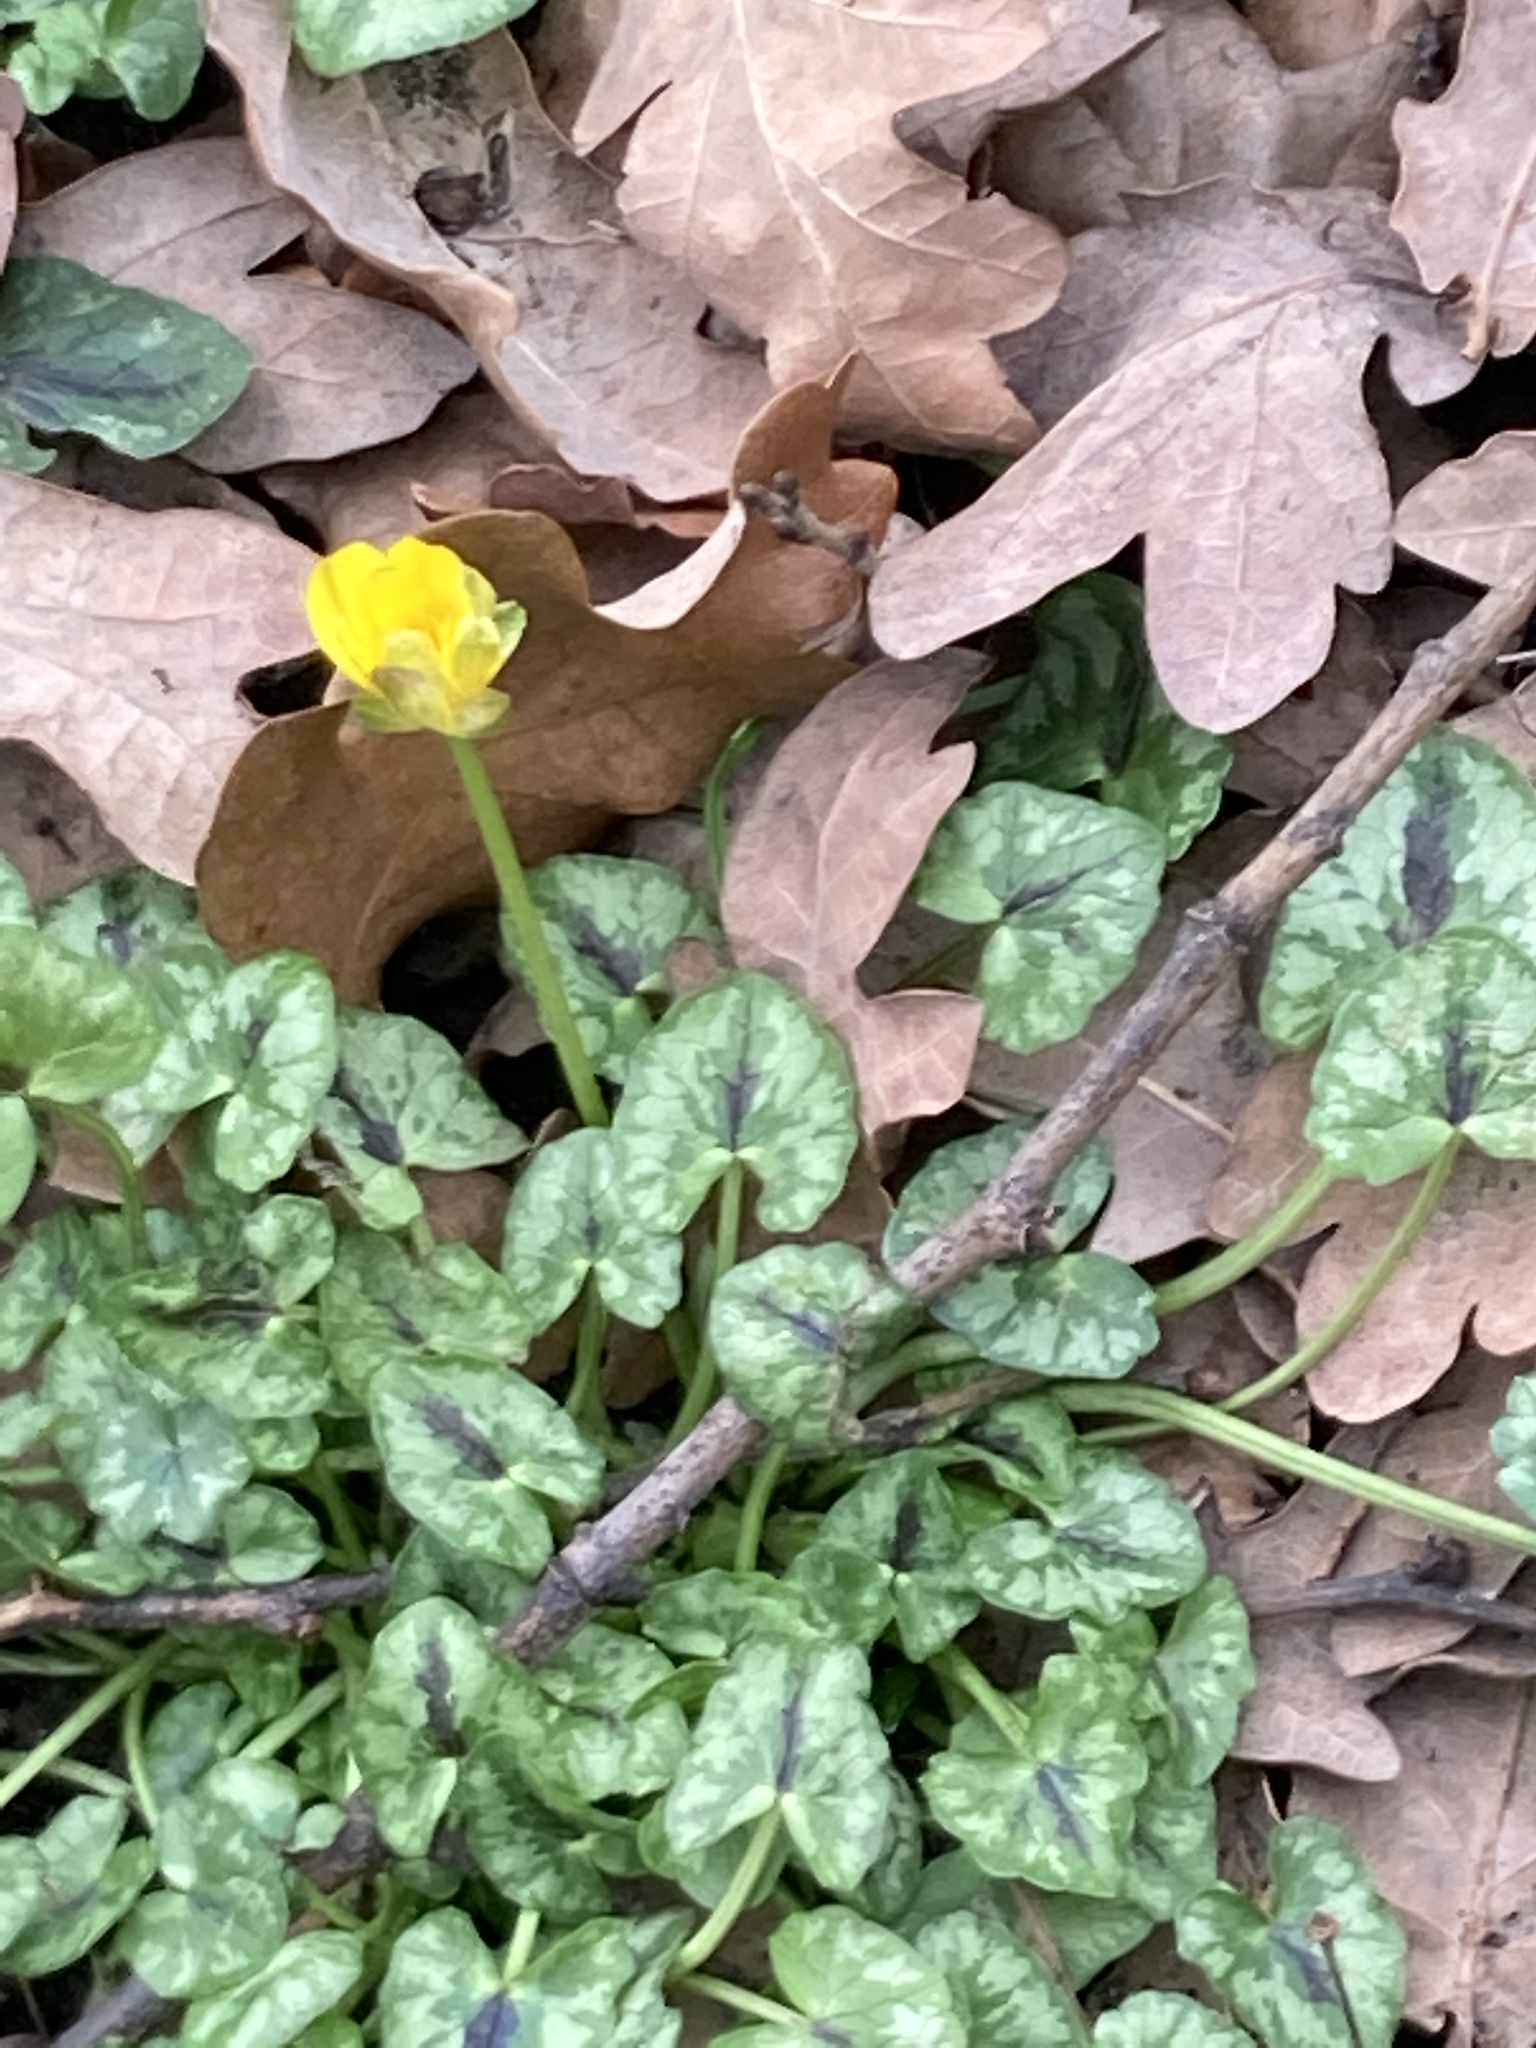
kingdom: Plantae
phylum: Tracheophyta
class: Magnoliopsida
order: Ranunculales
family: Ranunculaceae
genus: Ficaria
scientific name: Ficaria verna
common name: Lesser celandine
